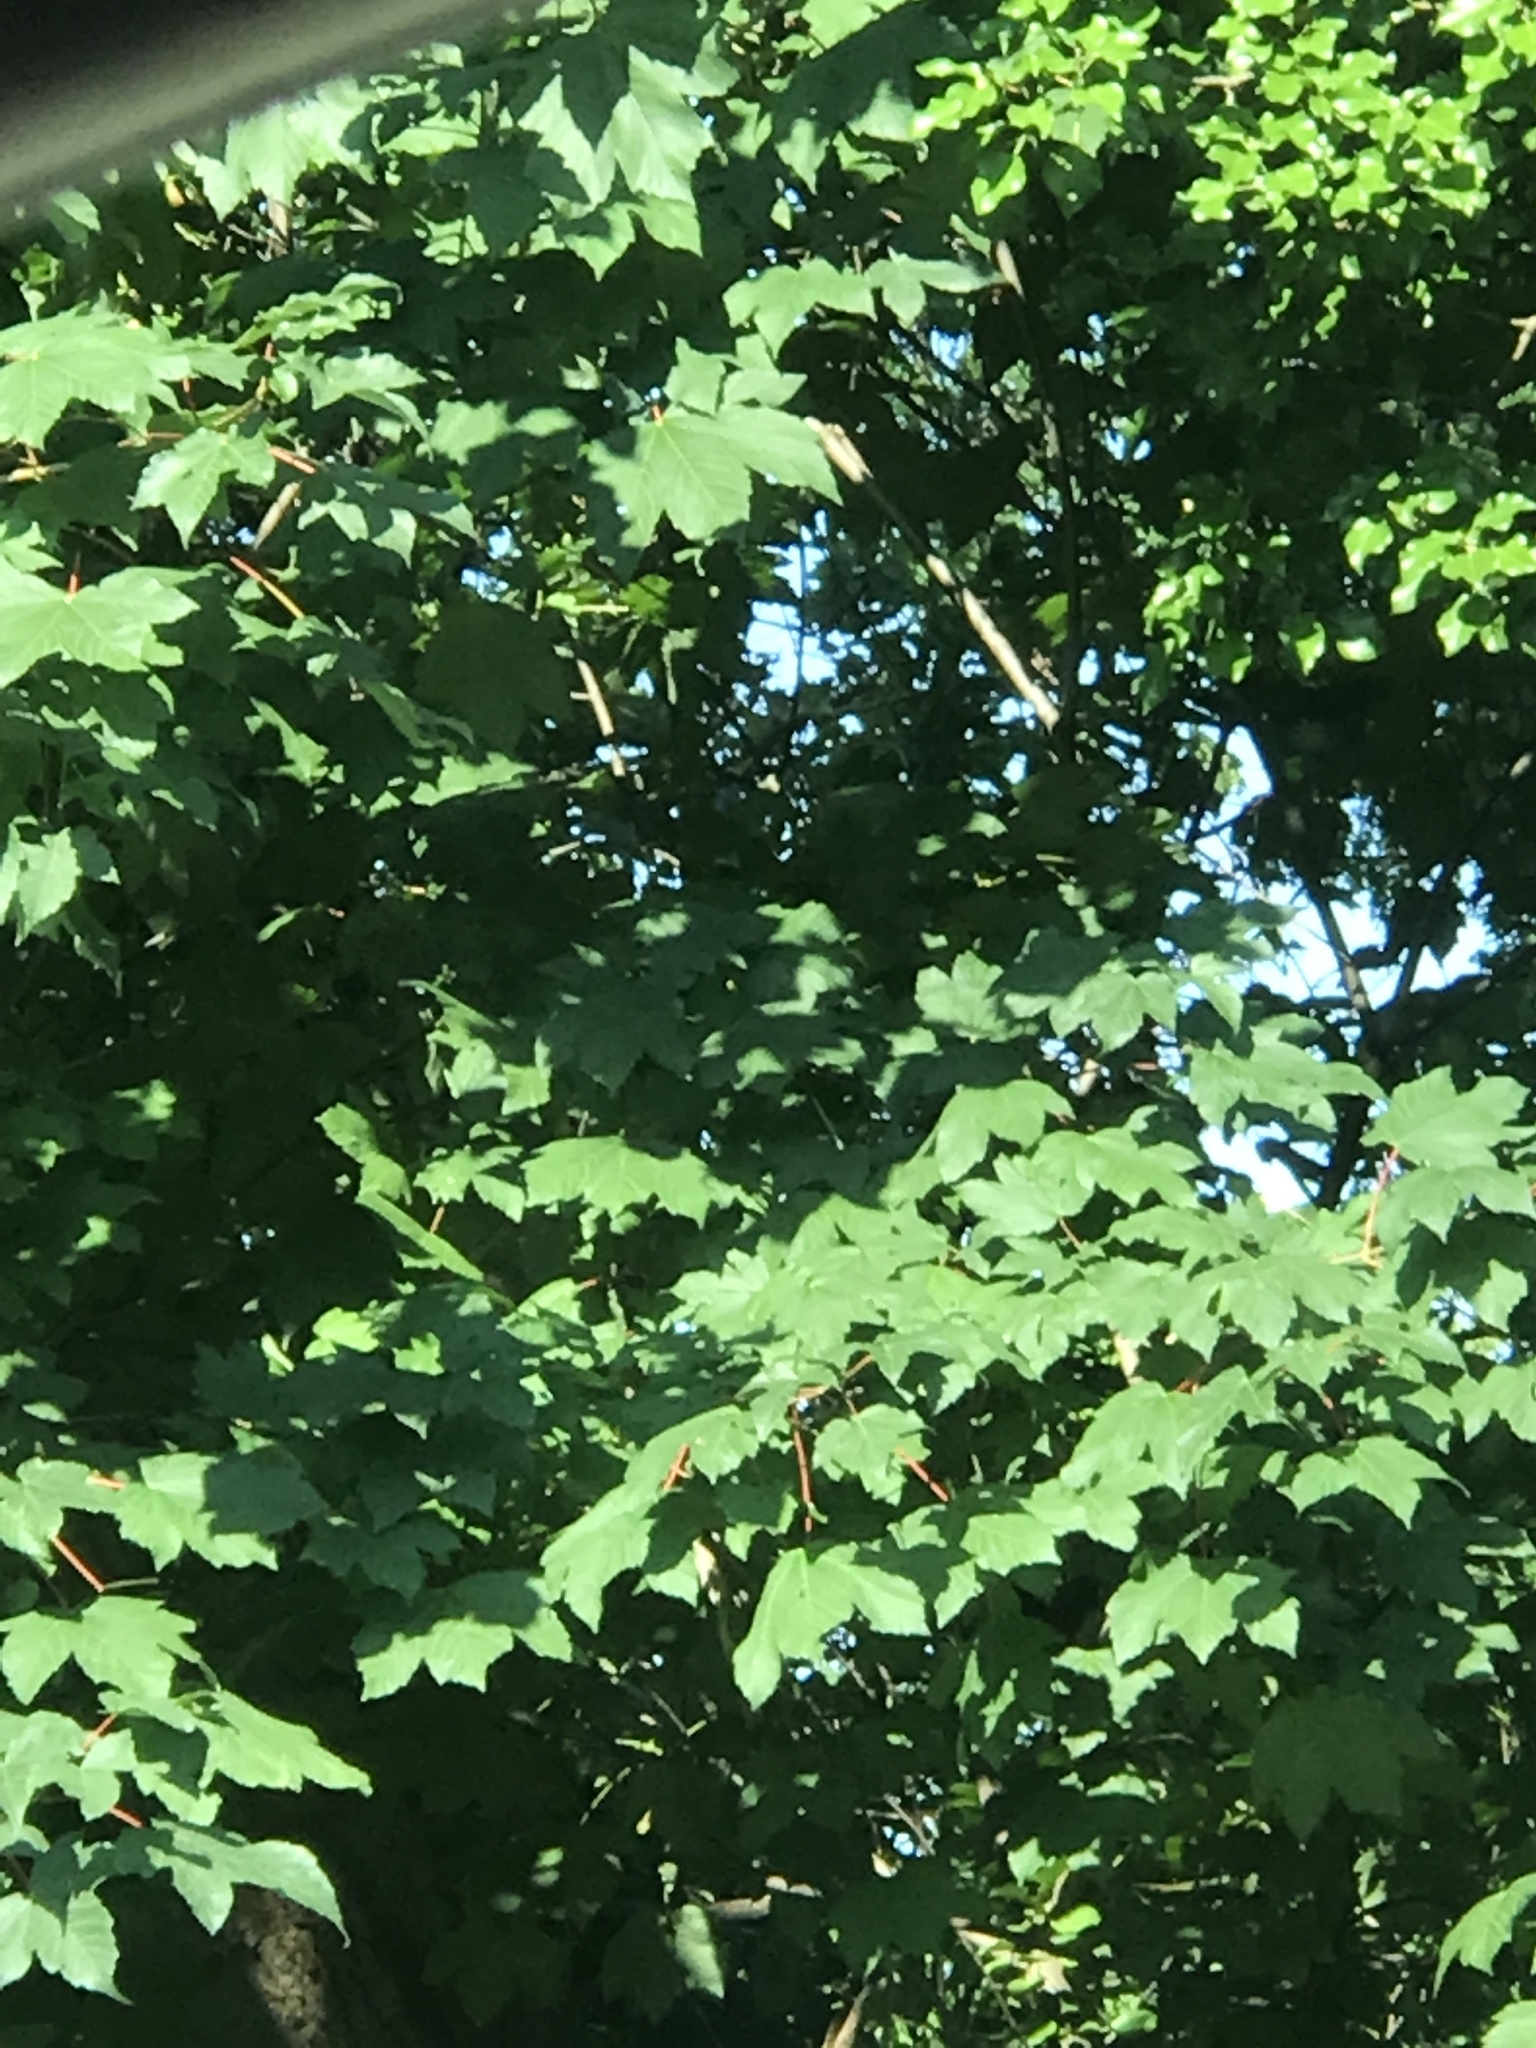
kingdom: Plantae
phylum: Tracheophyta
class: Magnoliopsida
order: Sapindales
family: Sapindaceae
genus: Acer
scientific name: Acer pseudoplatanus
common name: Sycamore
